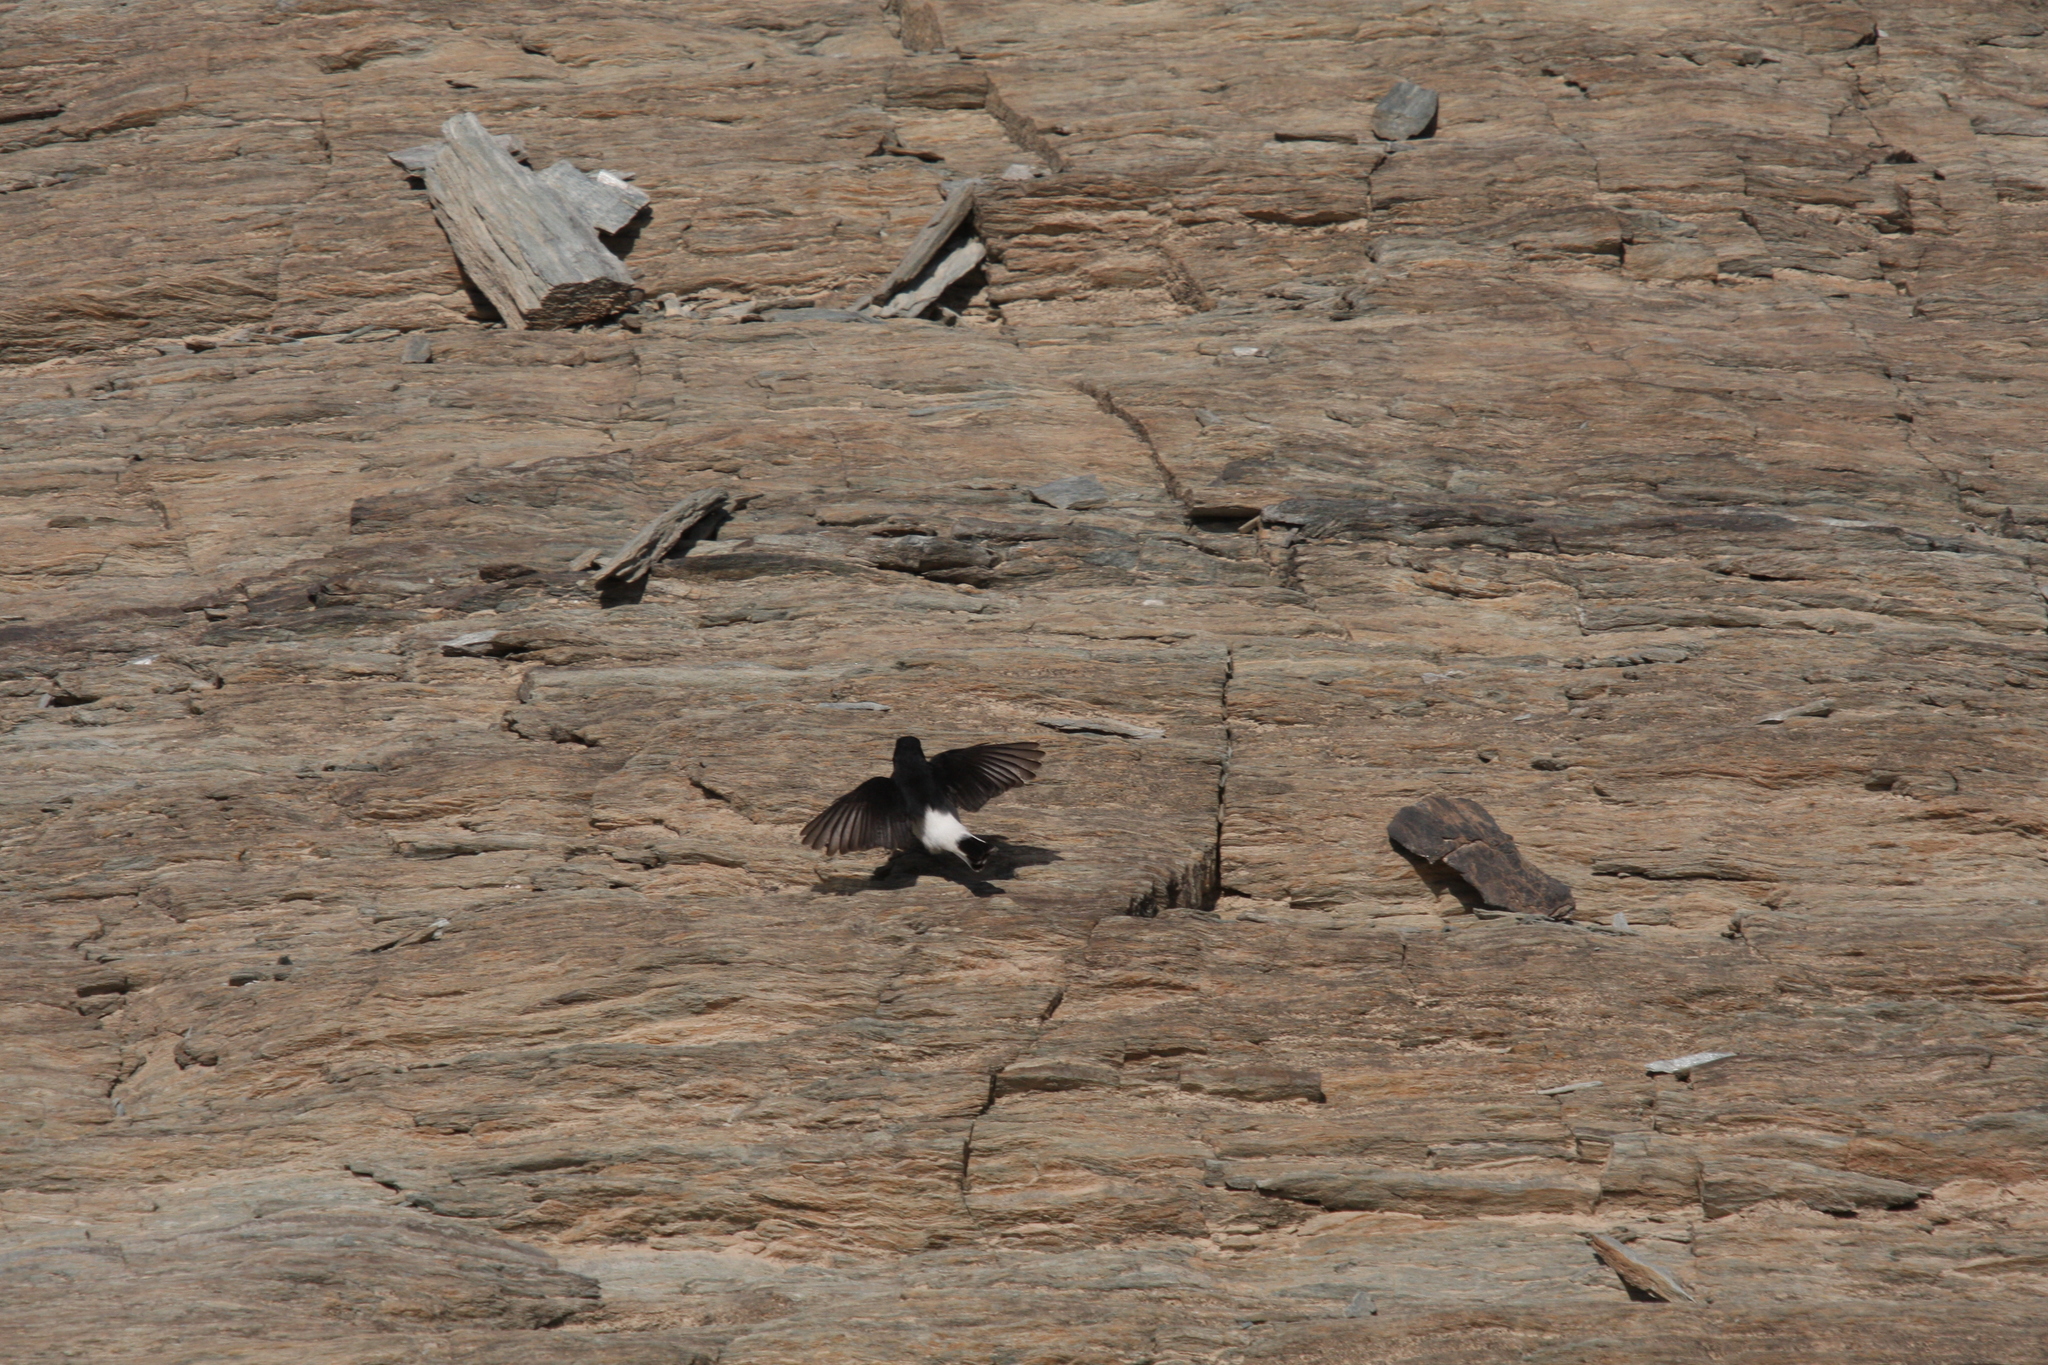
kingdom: Animalia
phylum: Chordata
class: Aves
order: Passeriformes
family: Muscicapidae
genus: Oenanthe
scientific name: Oenanthe albonigra
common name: Hume's wheatear
